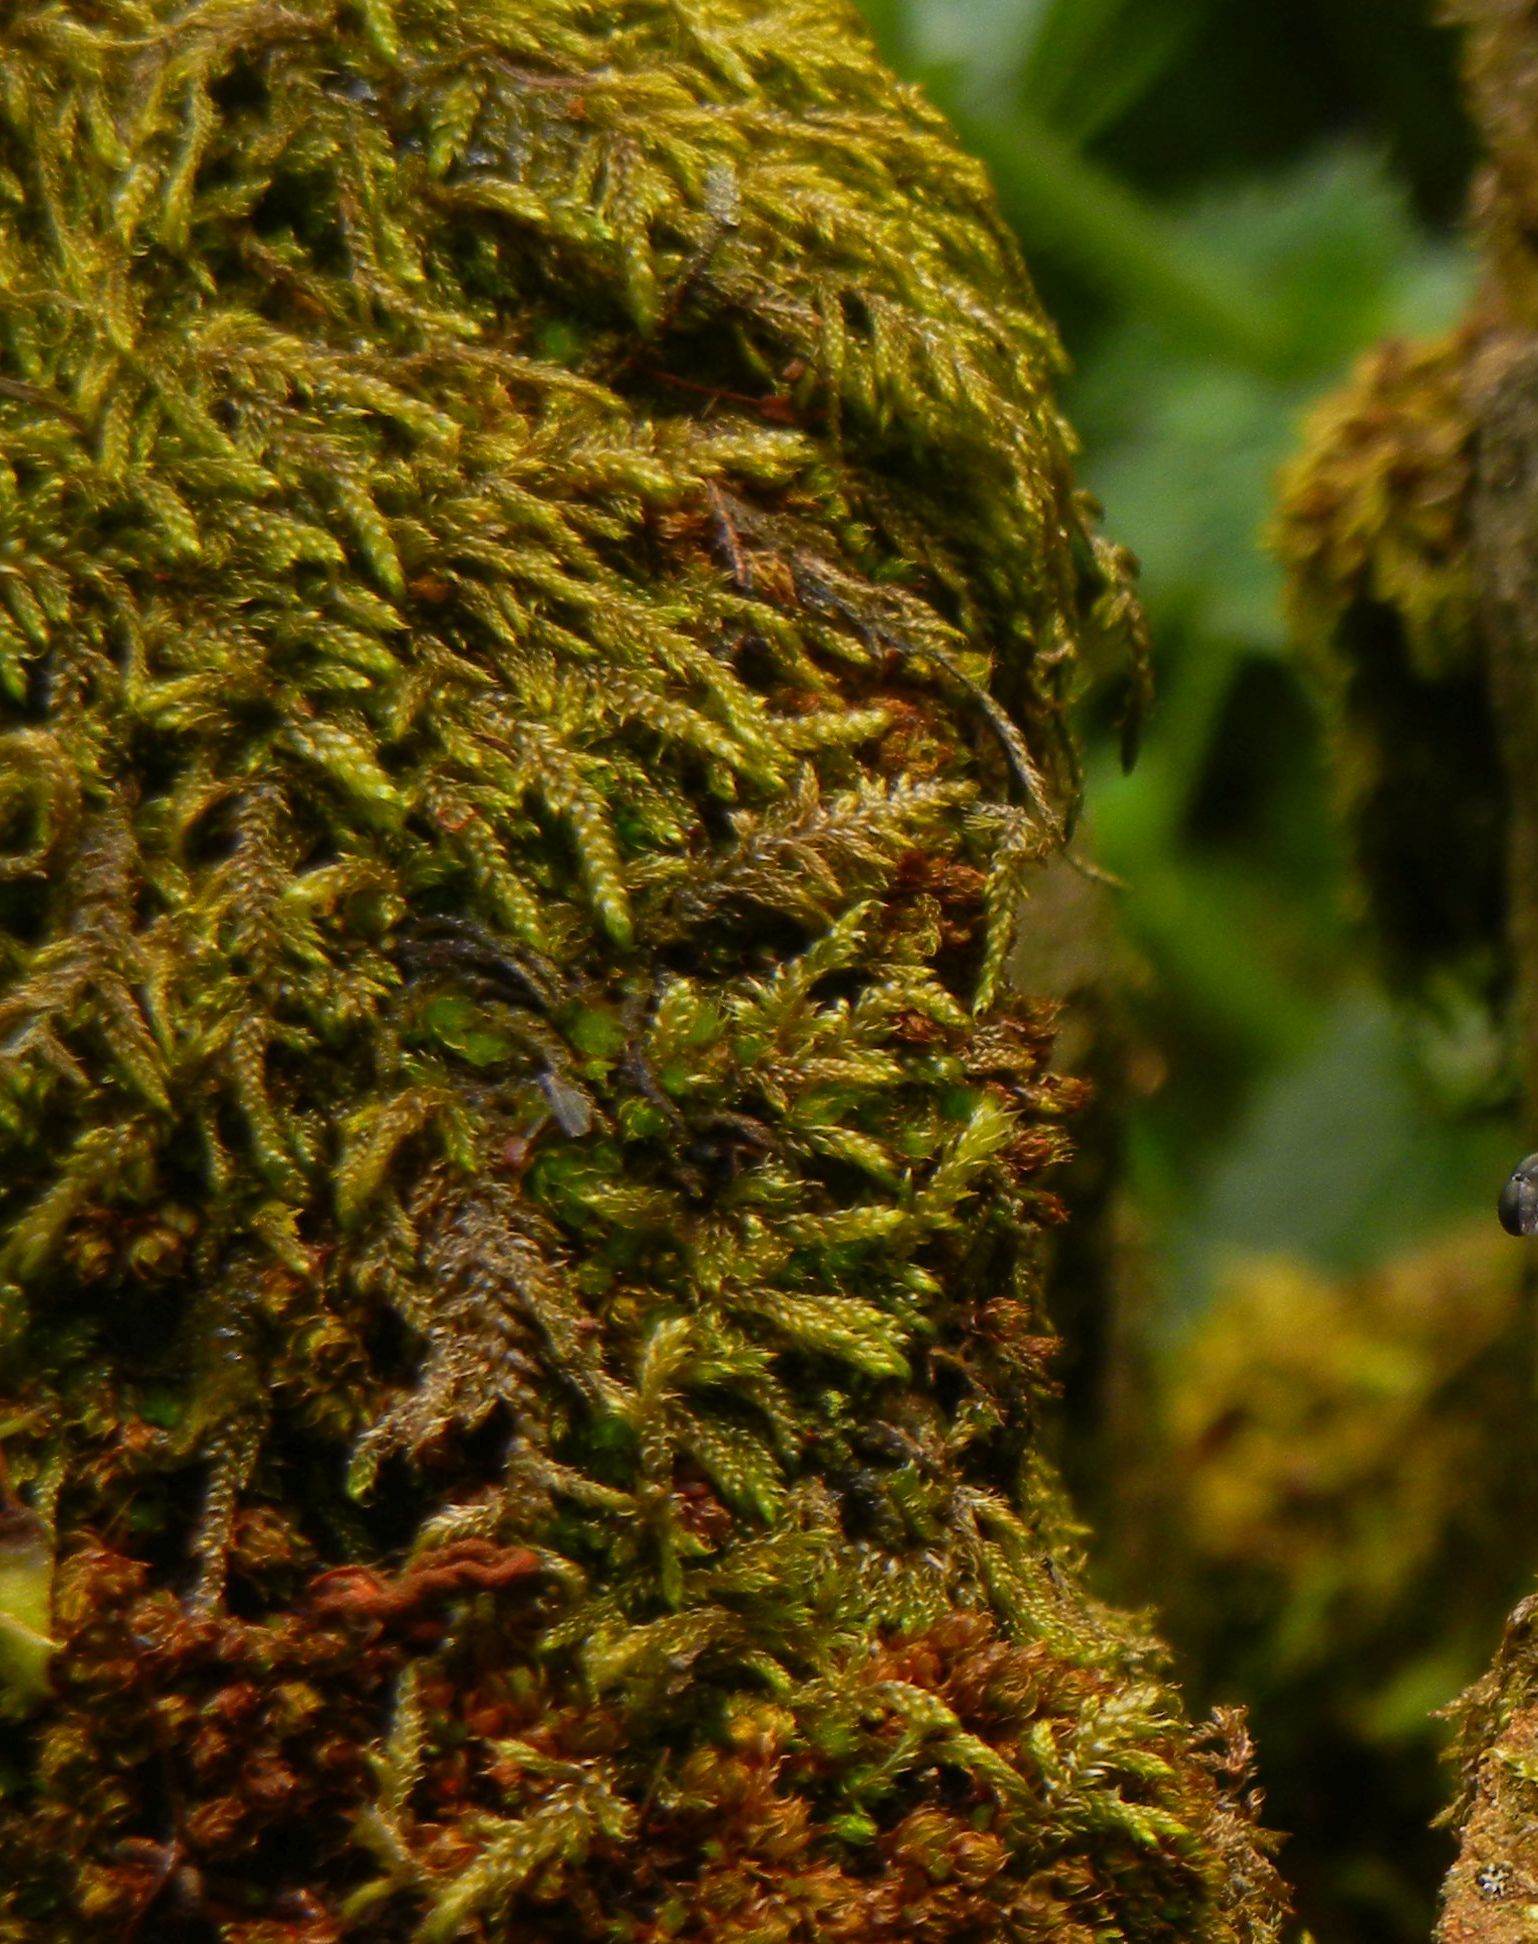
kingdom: Plantae
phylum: Bryophyta
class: Bryopsida
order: Hypnales
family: Hypnaceae
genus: Hypnum
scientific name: Hypnum cupressiforme
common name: Cypress-leaved plait-moss
